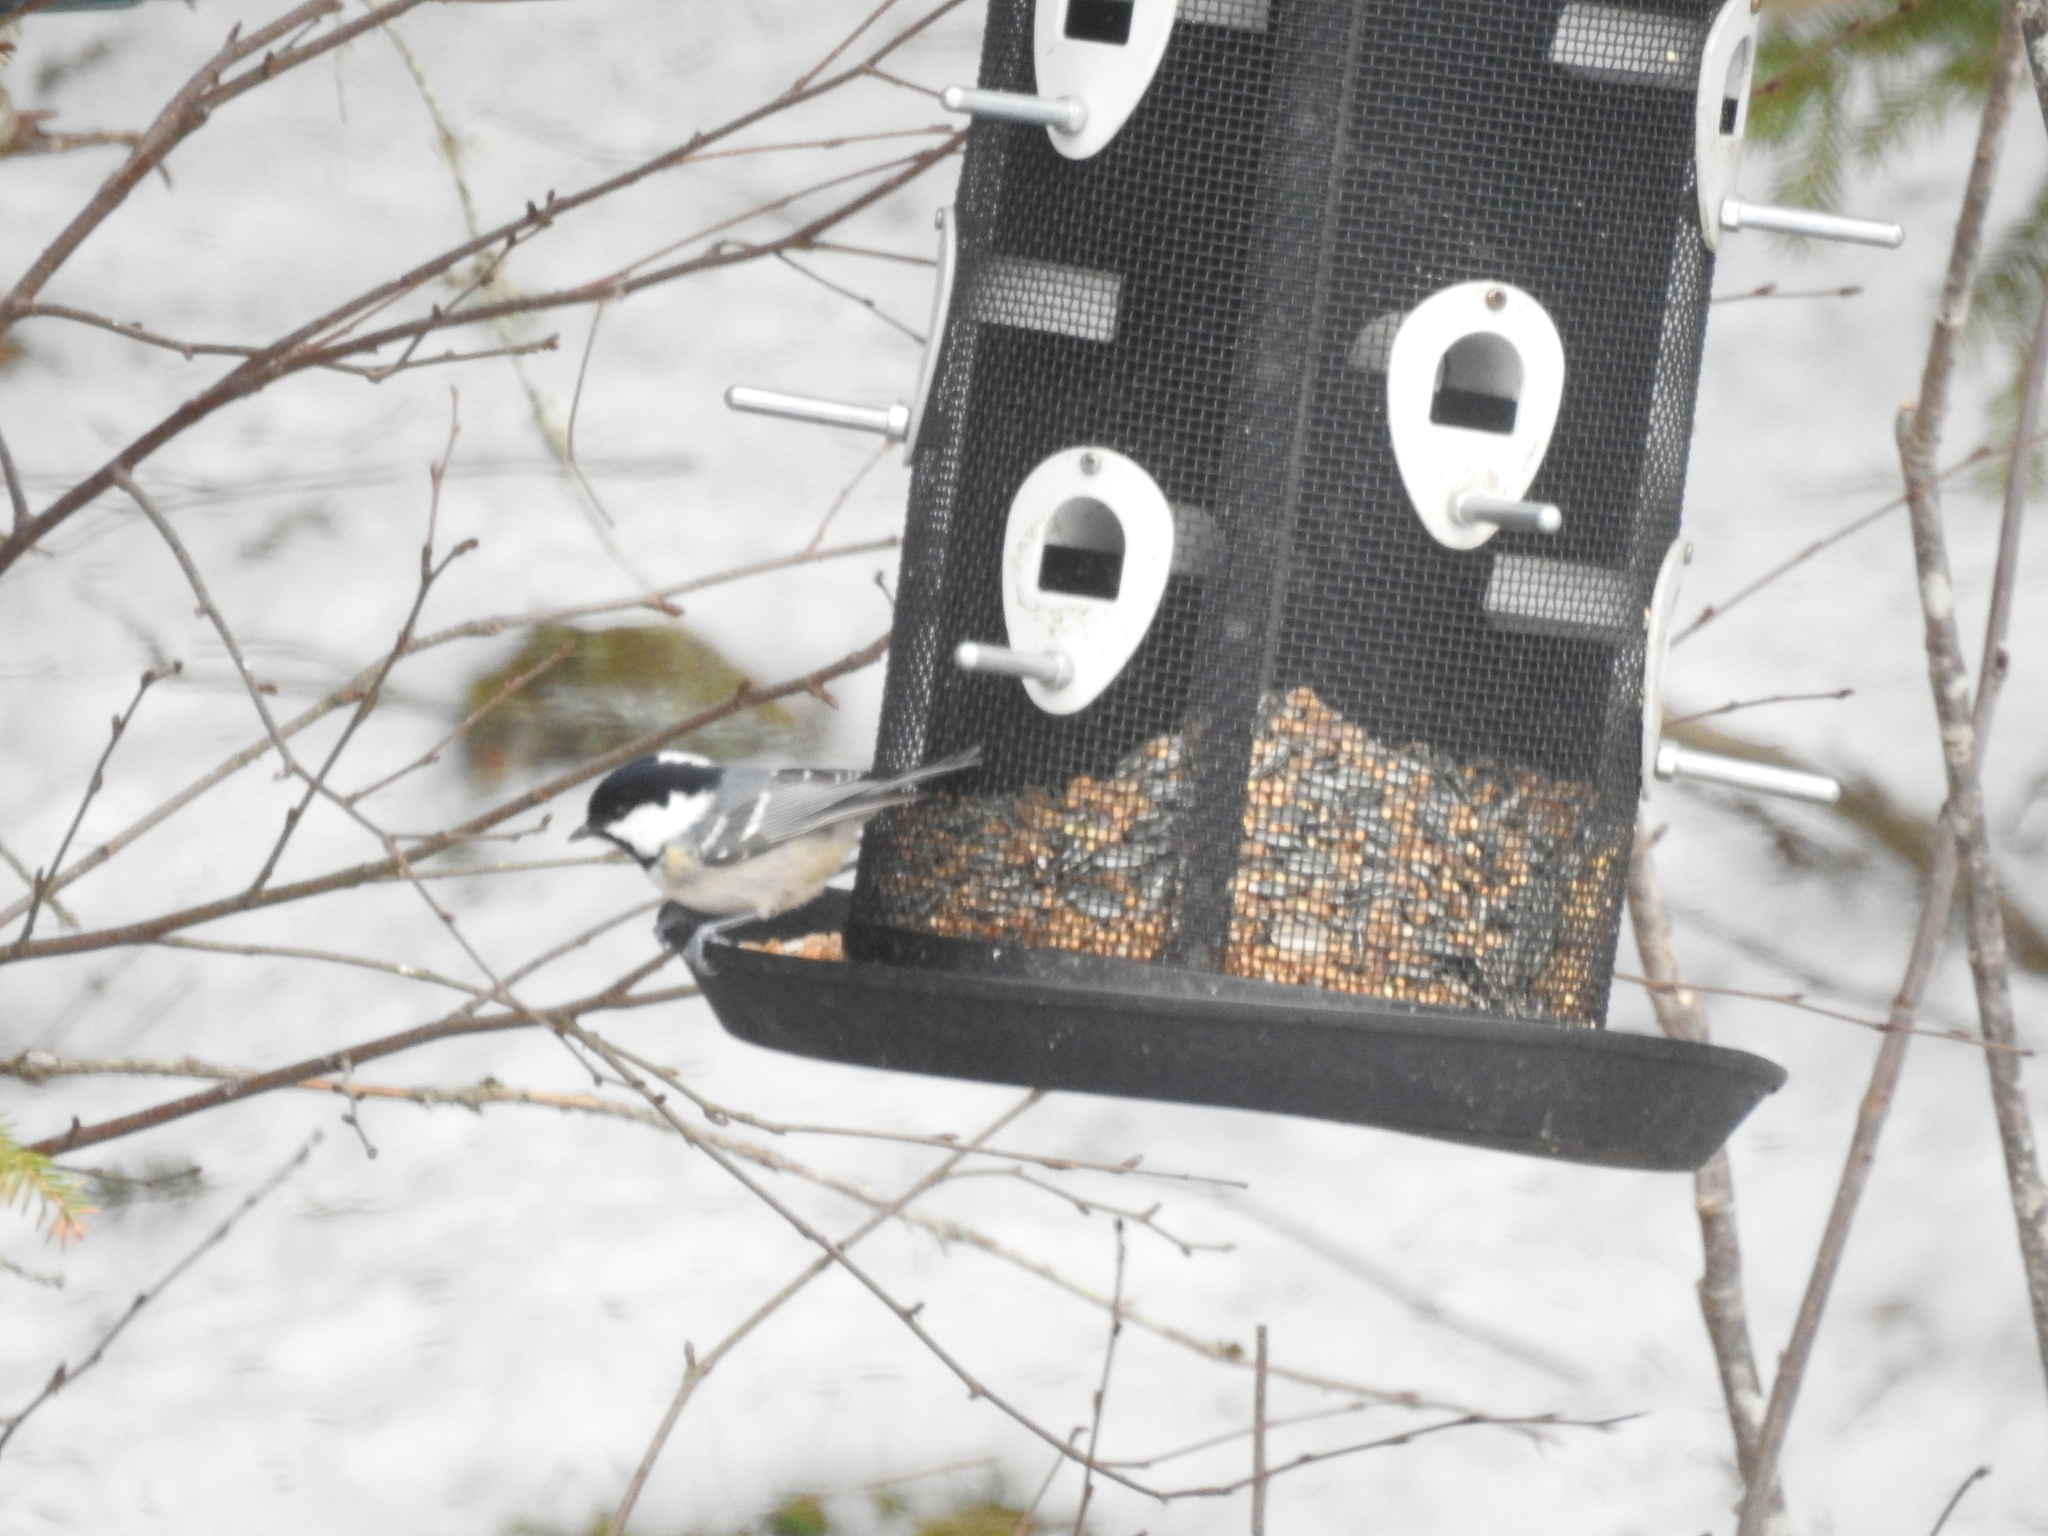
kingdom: Animalia
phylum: Chordata
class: Aves
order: Passeriformes
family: Paridae
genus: Periparus
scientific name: Periparus ater
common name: Coal tit
